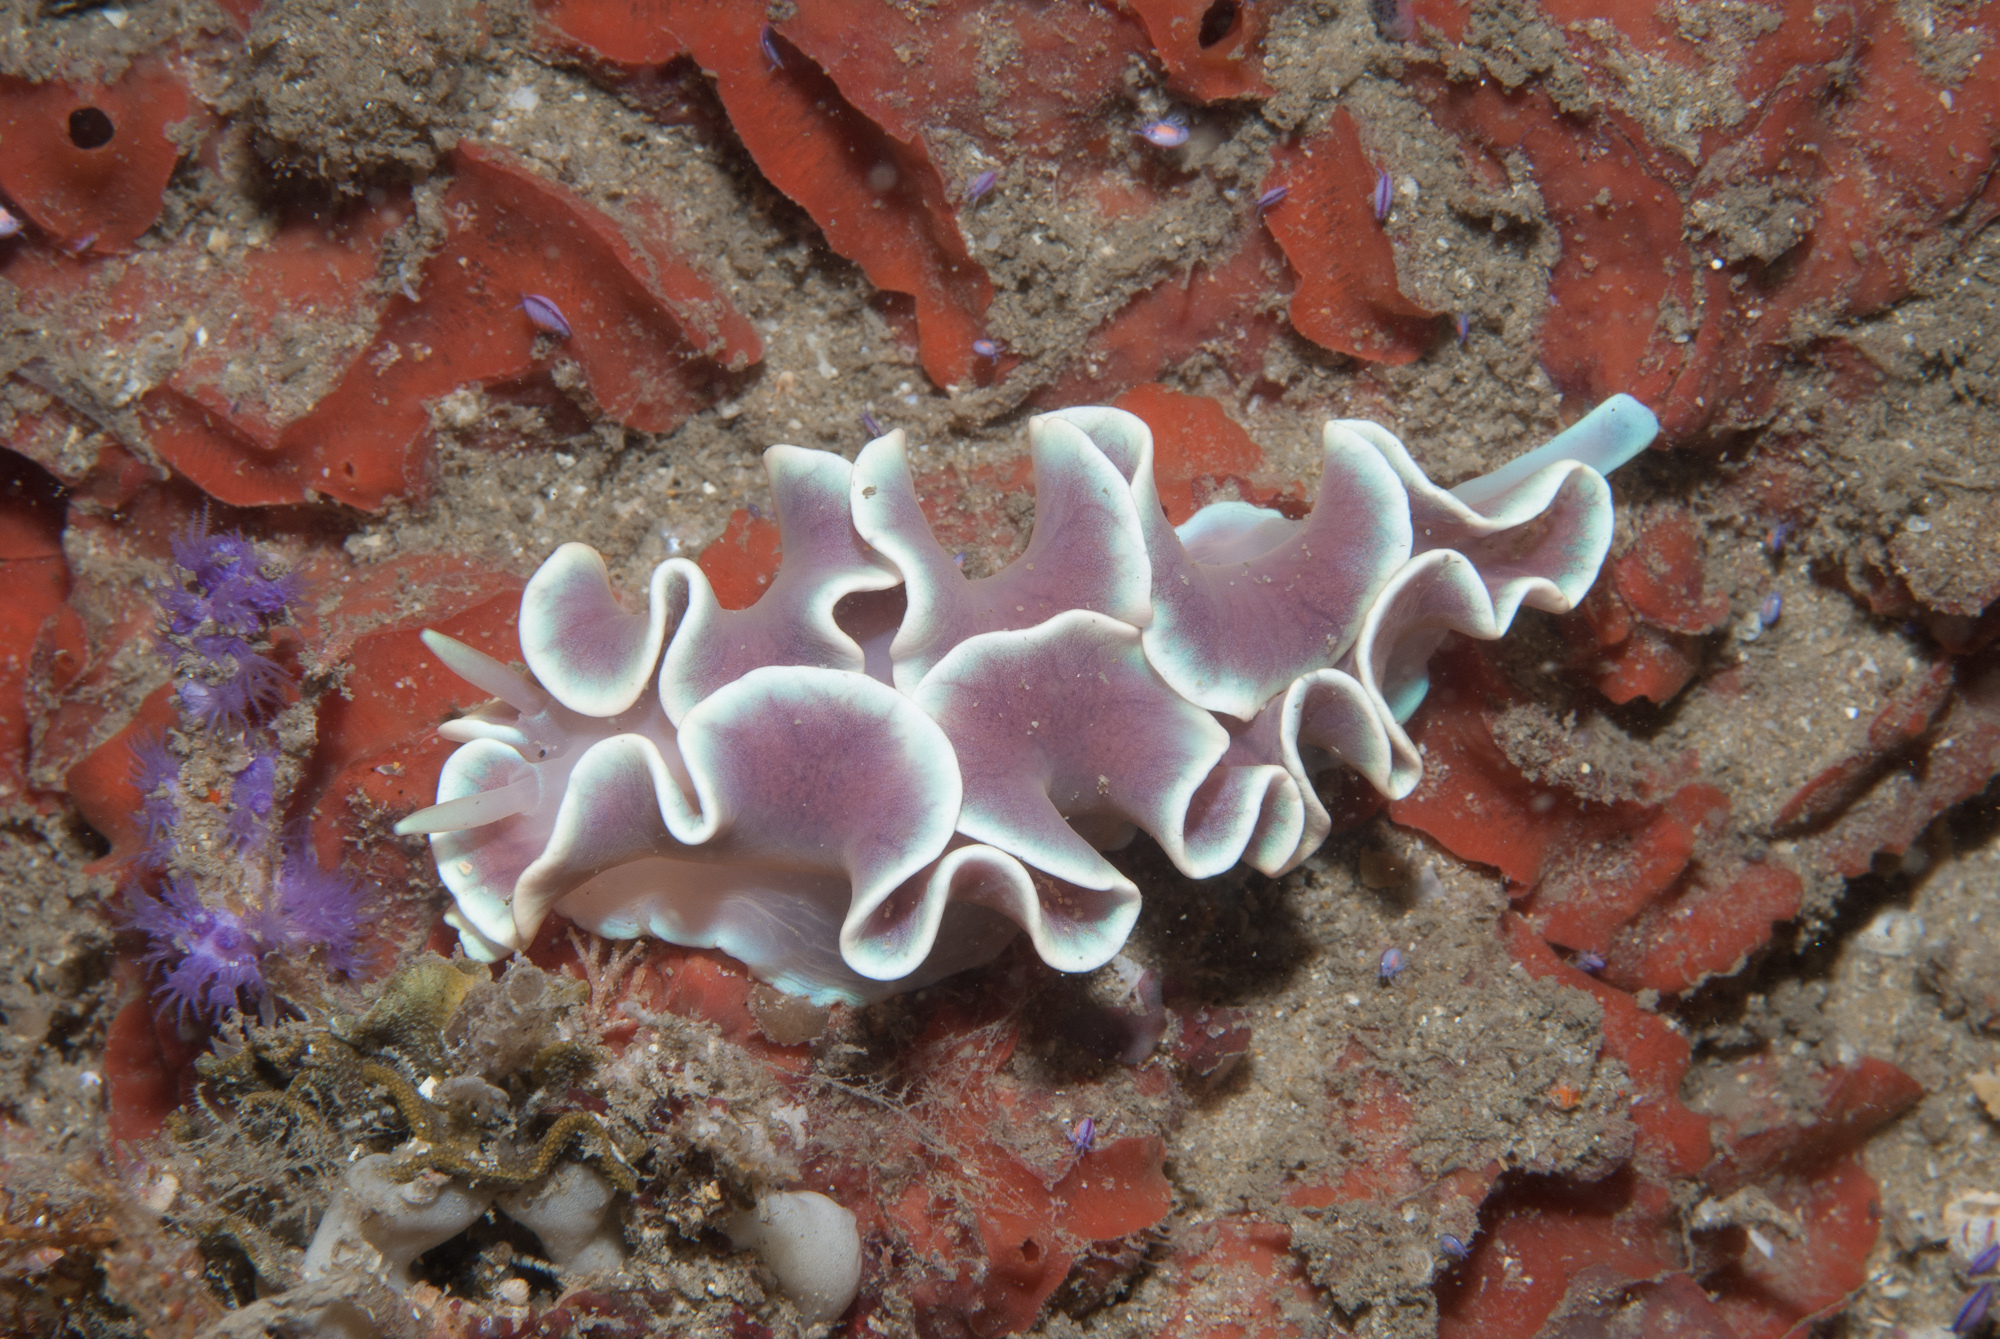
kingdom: Animalia
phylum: Mollusca
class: Gastropoda
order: Nudibranchia
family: Lemindidae
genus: Leminda
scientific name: Leminda millecra
